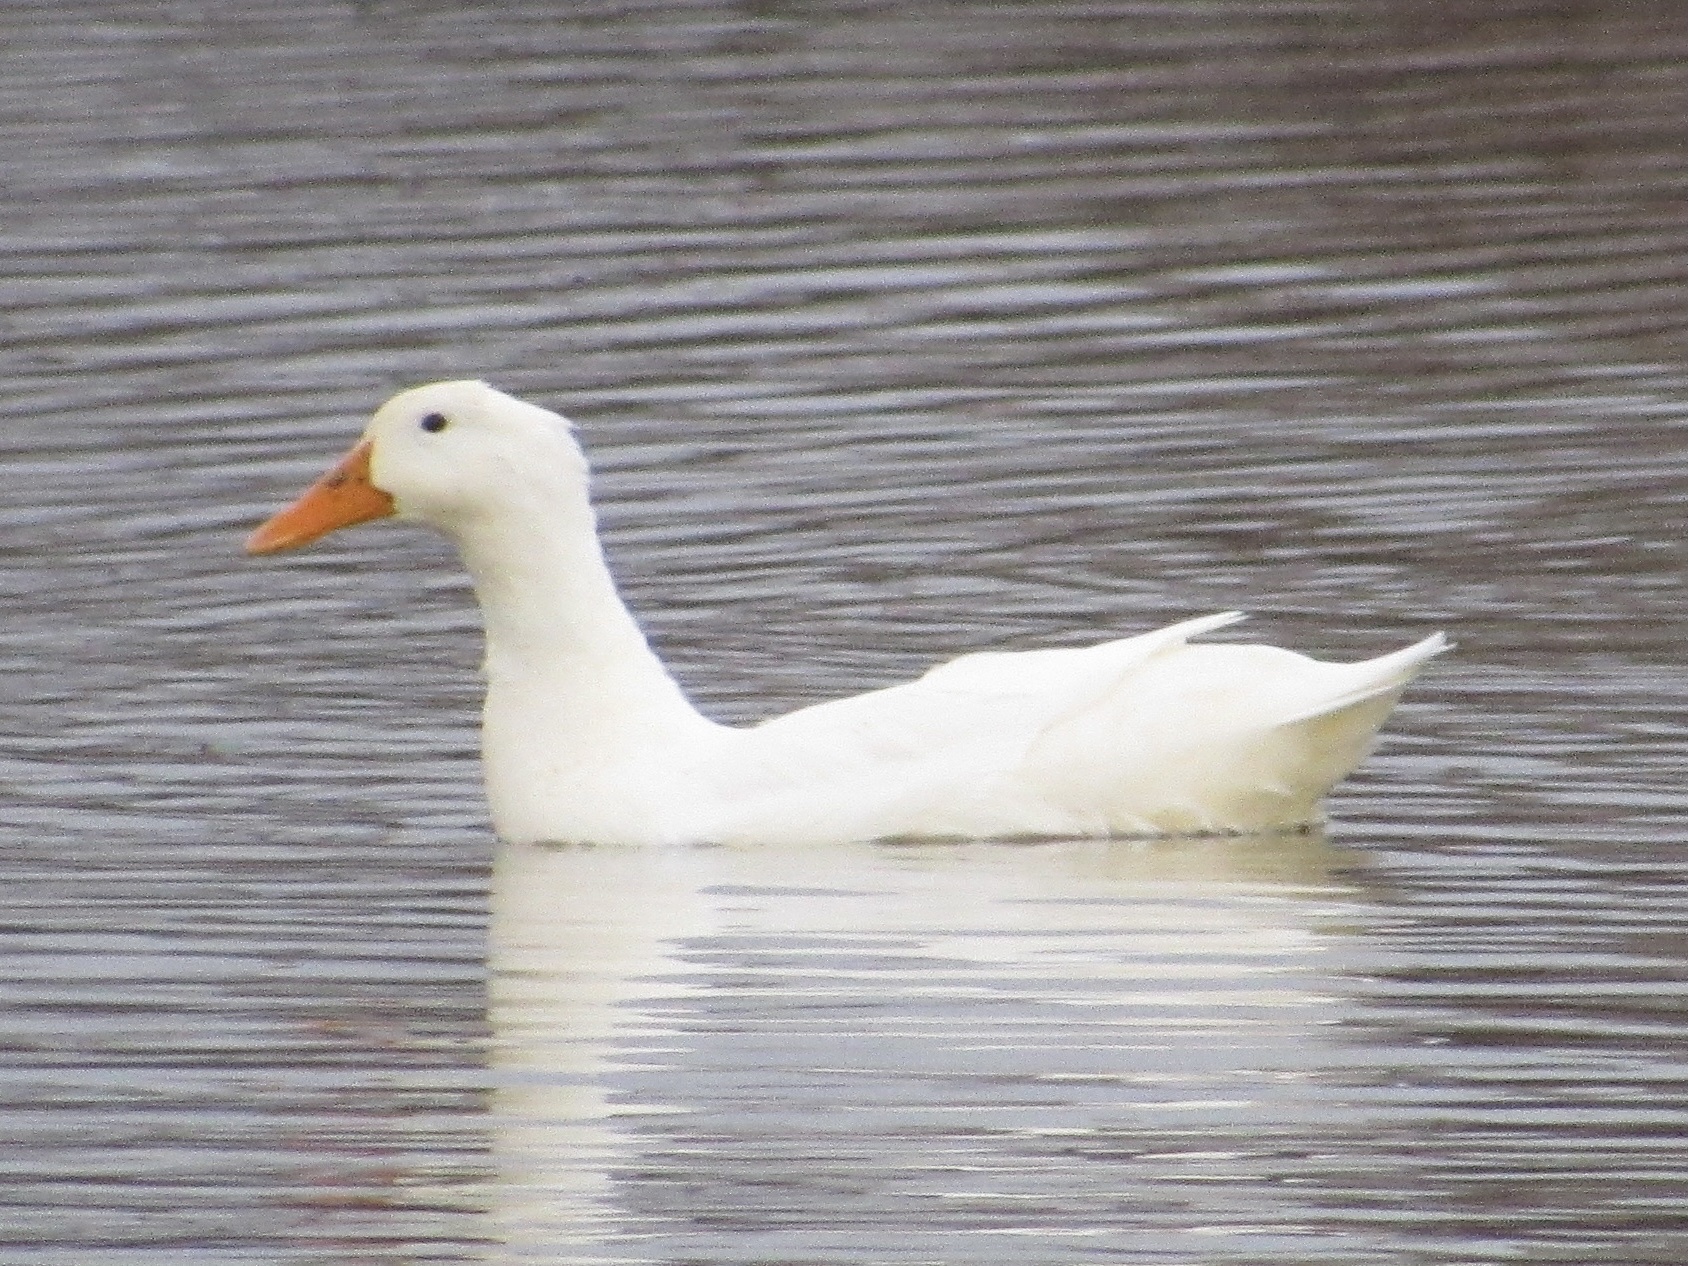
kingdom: Animalia
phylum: Chordata
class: Aves
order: Anseriformes
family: Anatidae
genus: Anas
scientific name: Anas platyrhynchos
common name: Mallard
